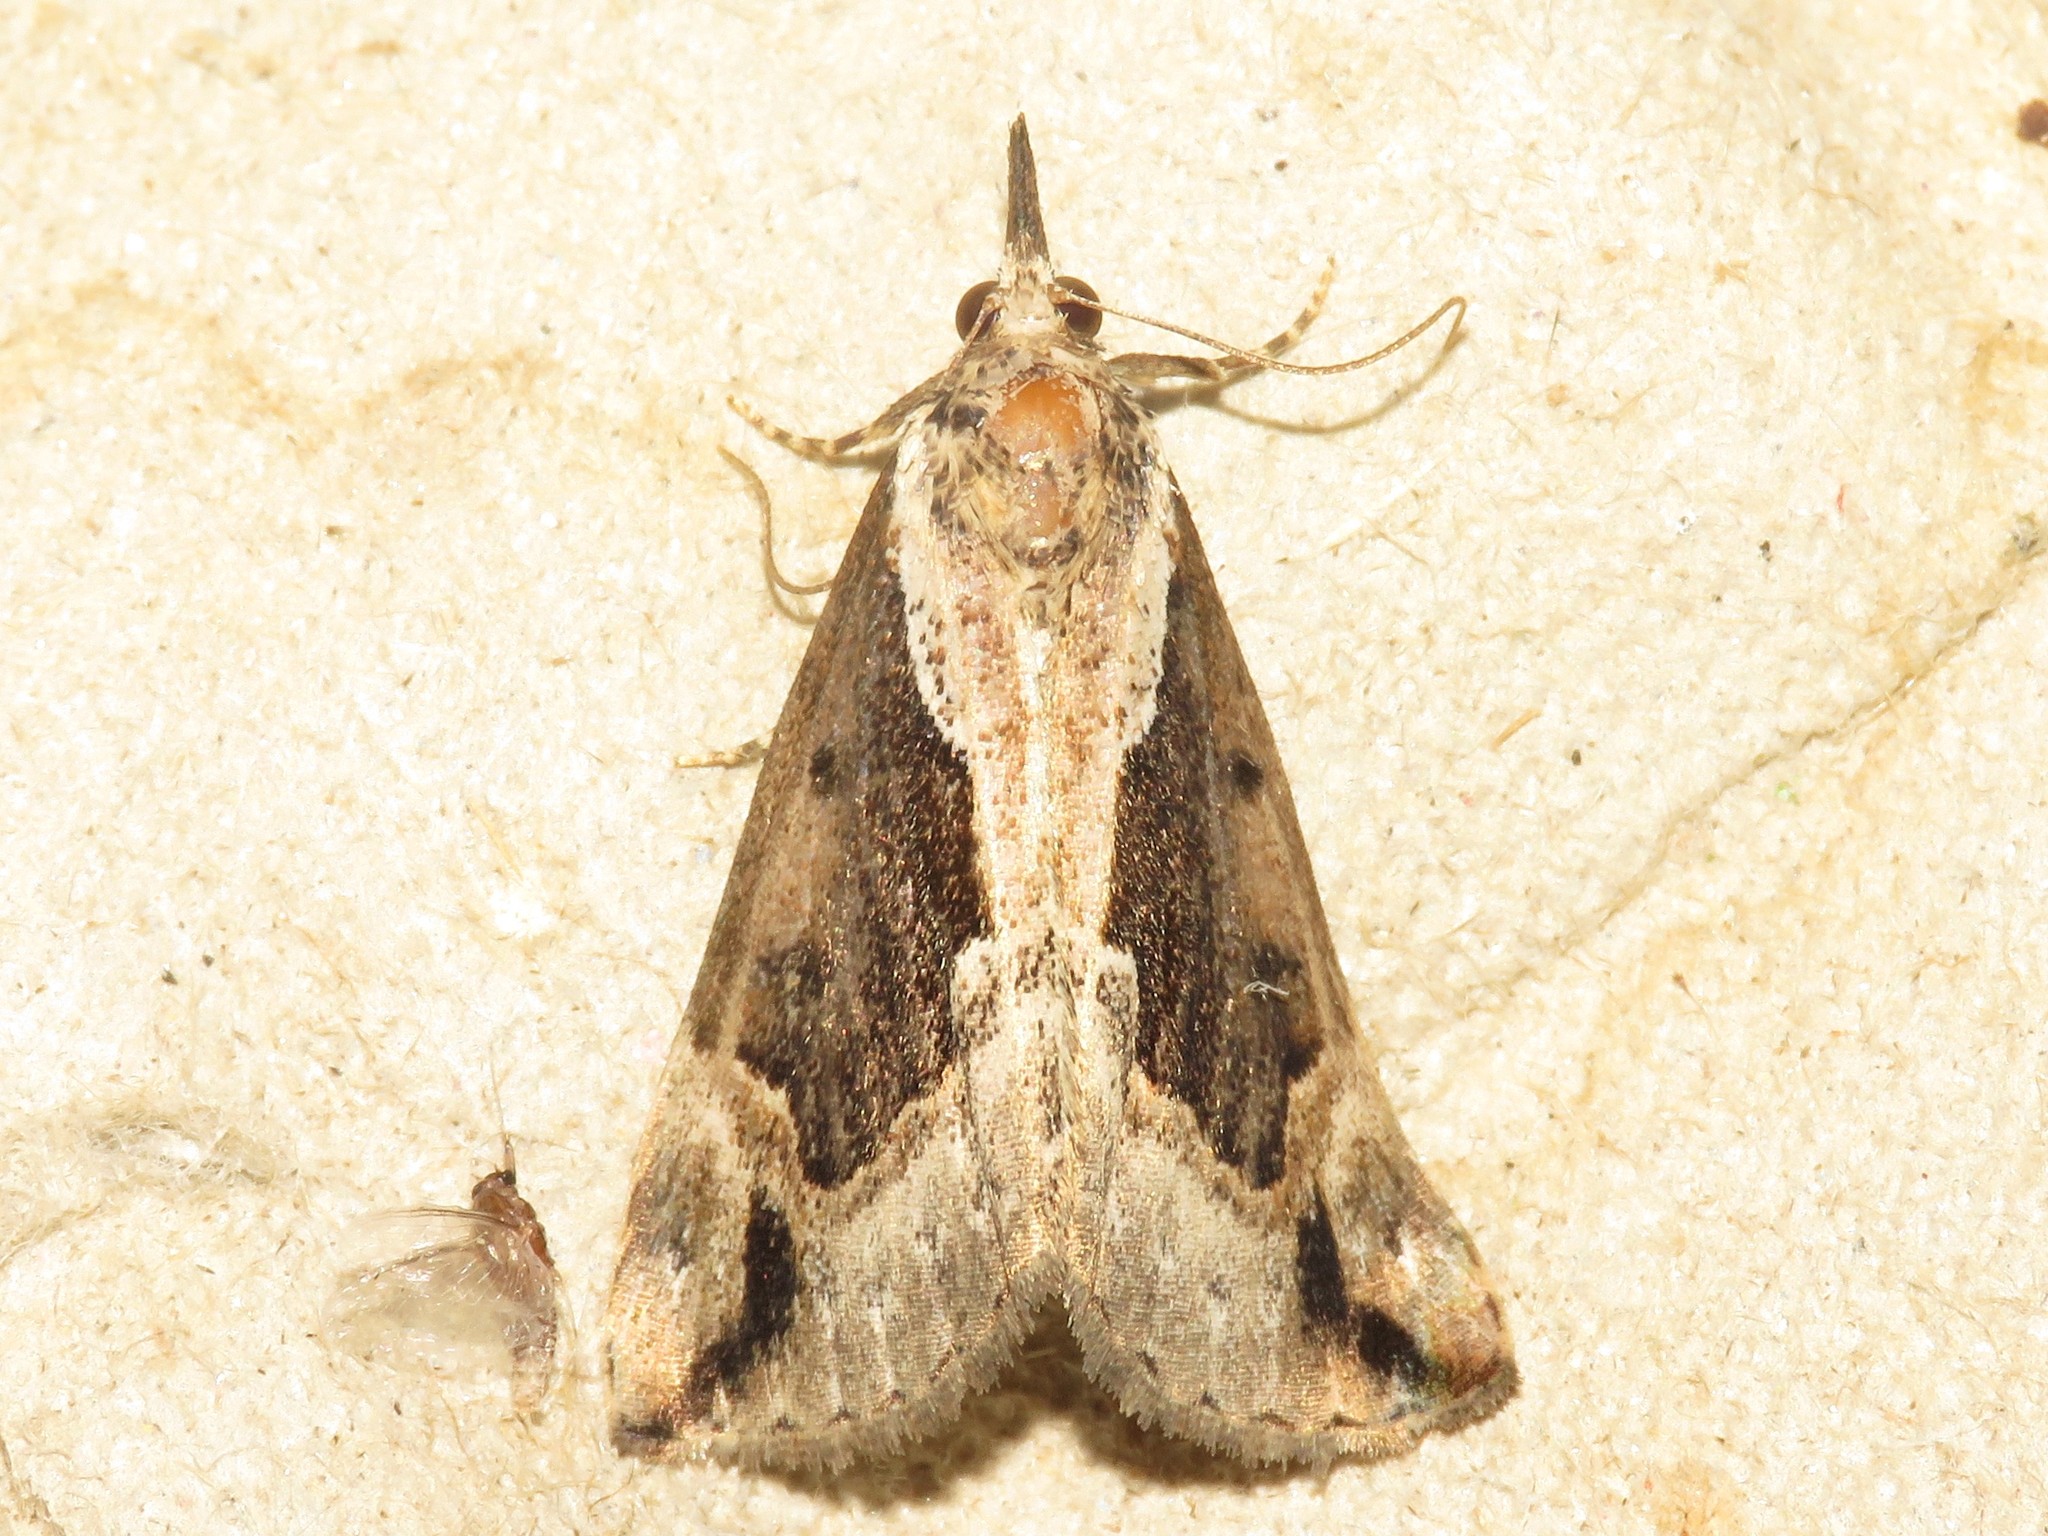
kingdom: Animalia
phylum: Arthropoda
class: Insecta
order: Lepidoptera
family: Erebidae
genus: Hypena
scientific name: Hypena baltimoralis
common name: Baltimore snout
